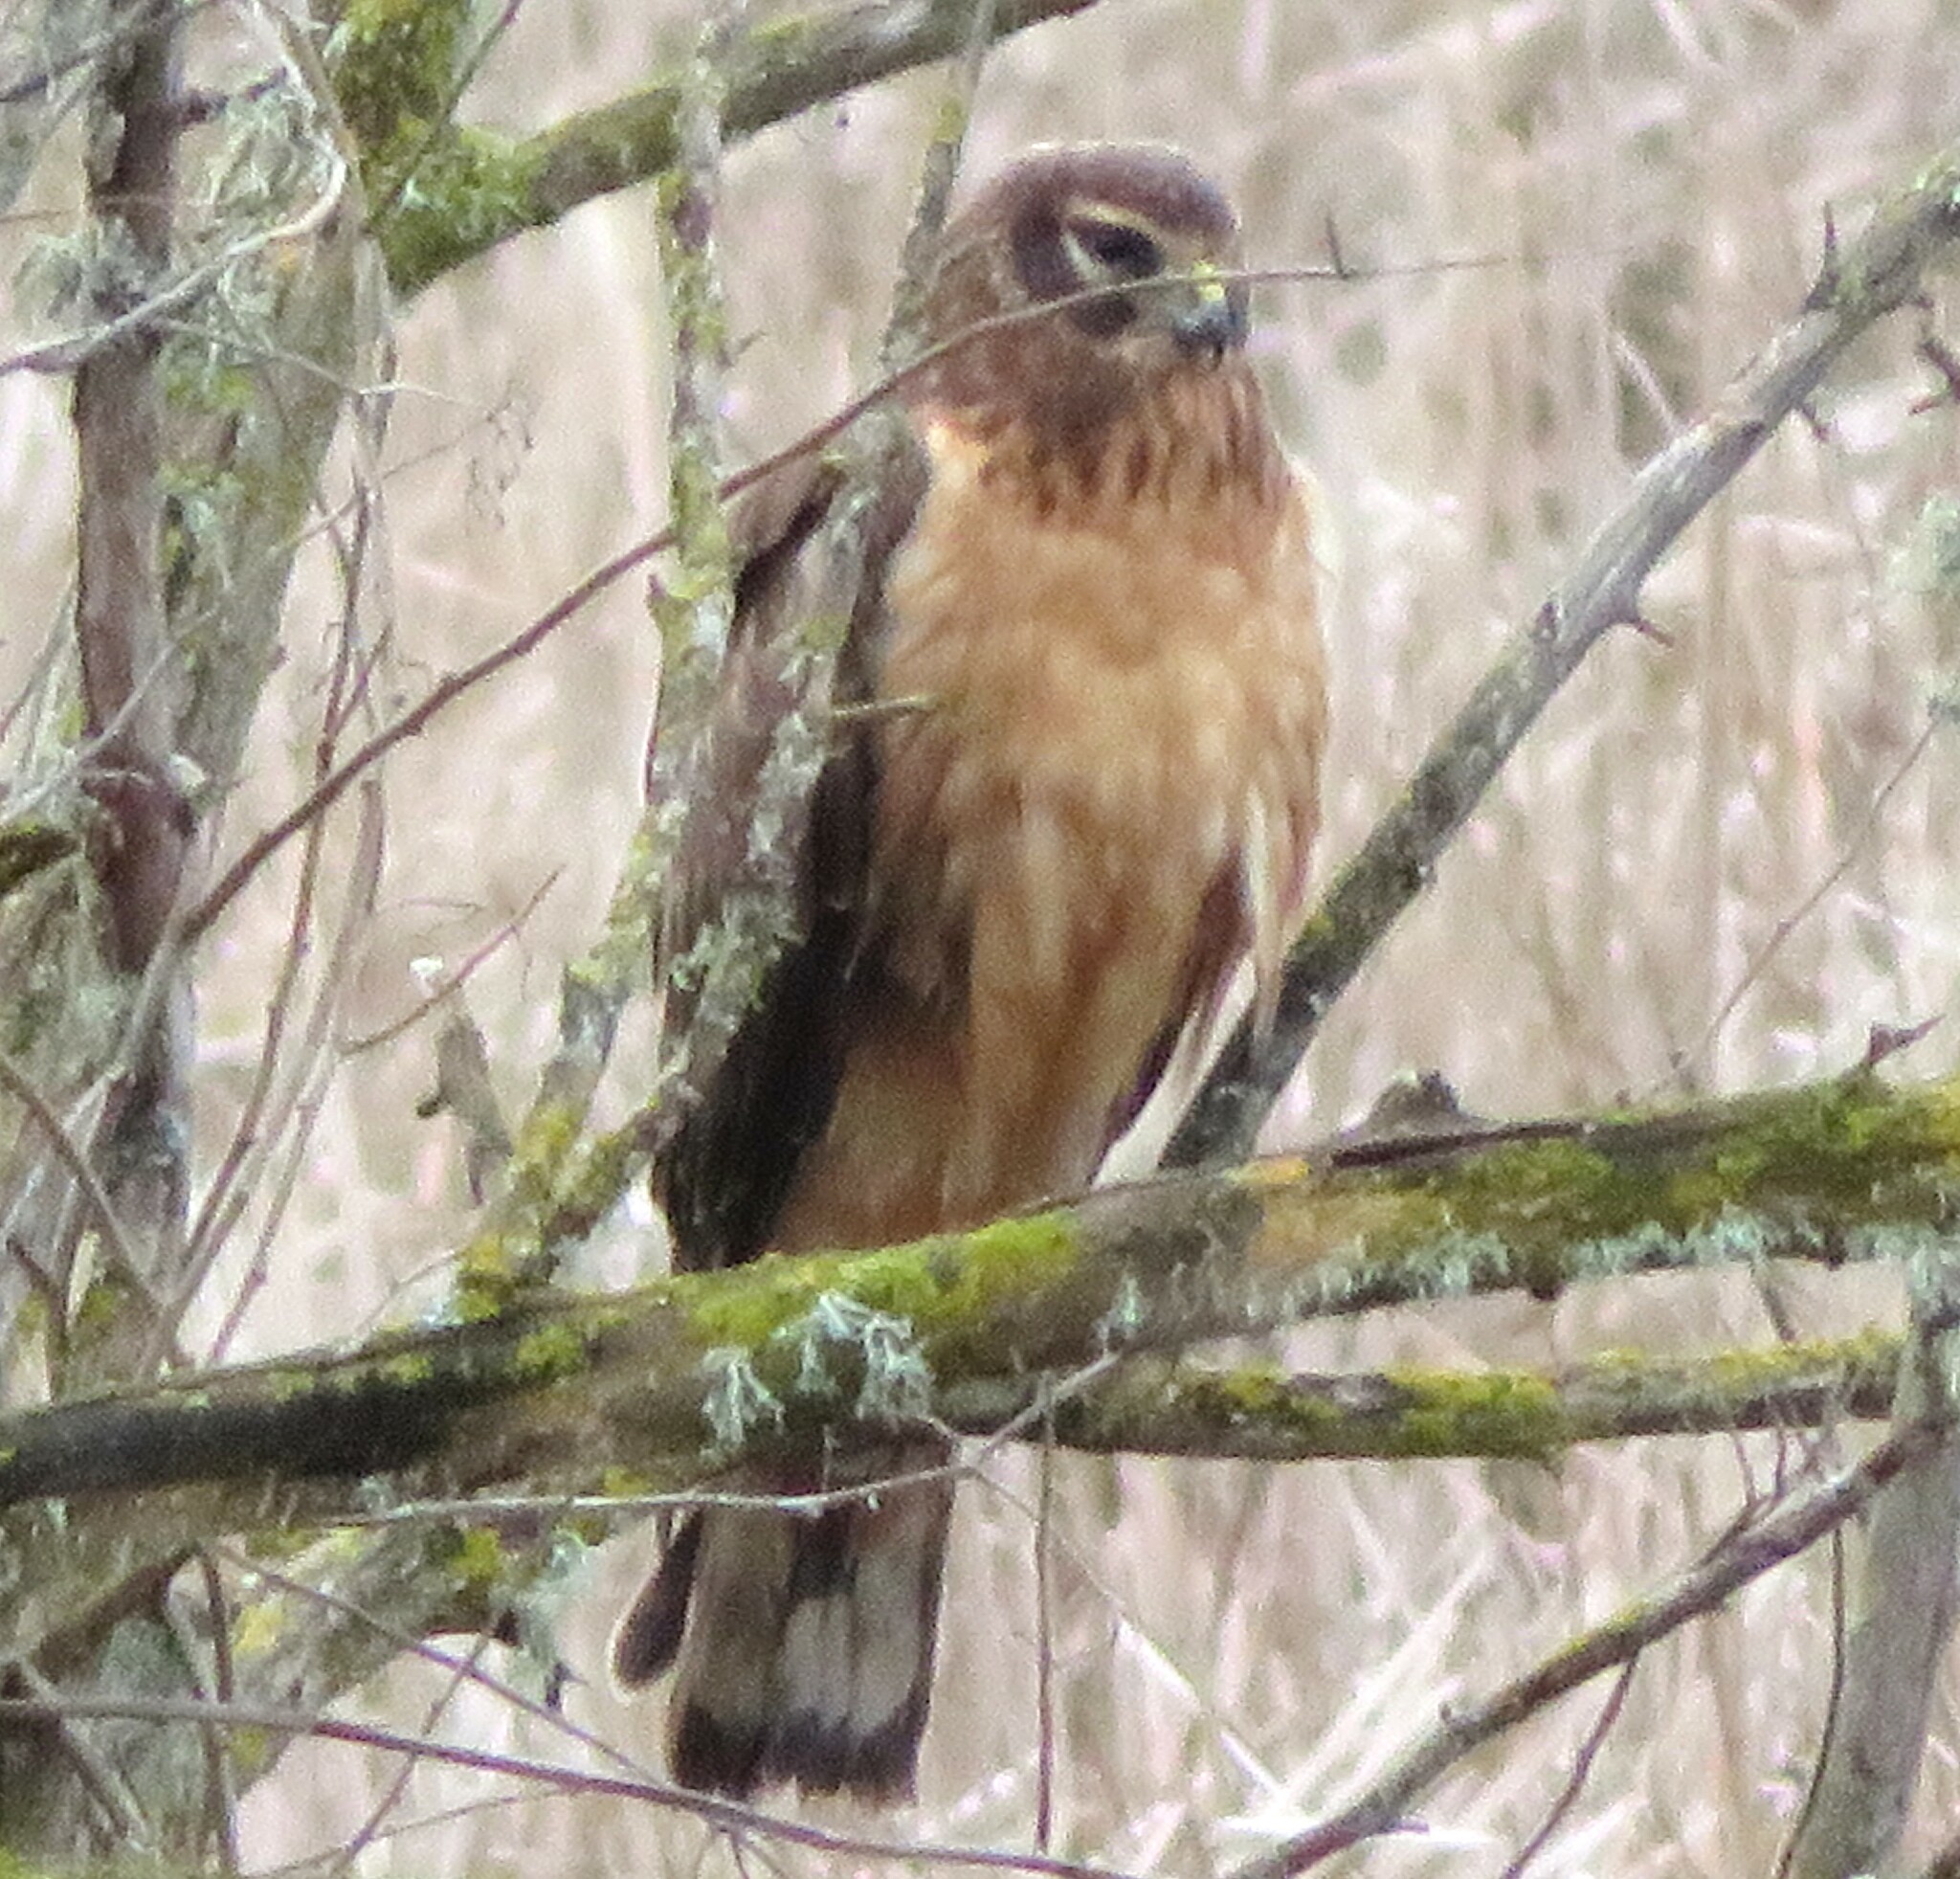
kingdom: Animalia
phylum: Chordata
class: Aves
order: Accipitriformes
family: Accipitridae
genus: Circus
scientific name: Circus cyaneus
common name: Hen harrier
